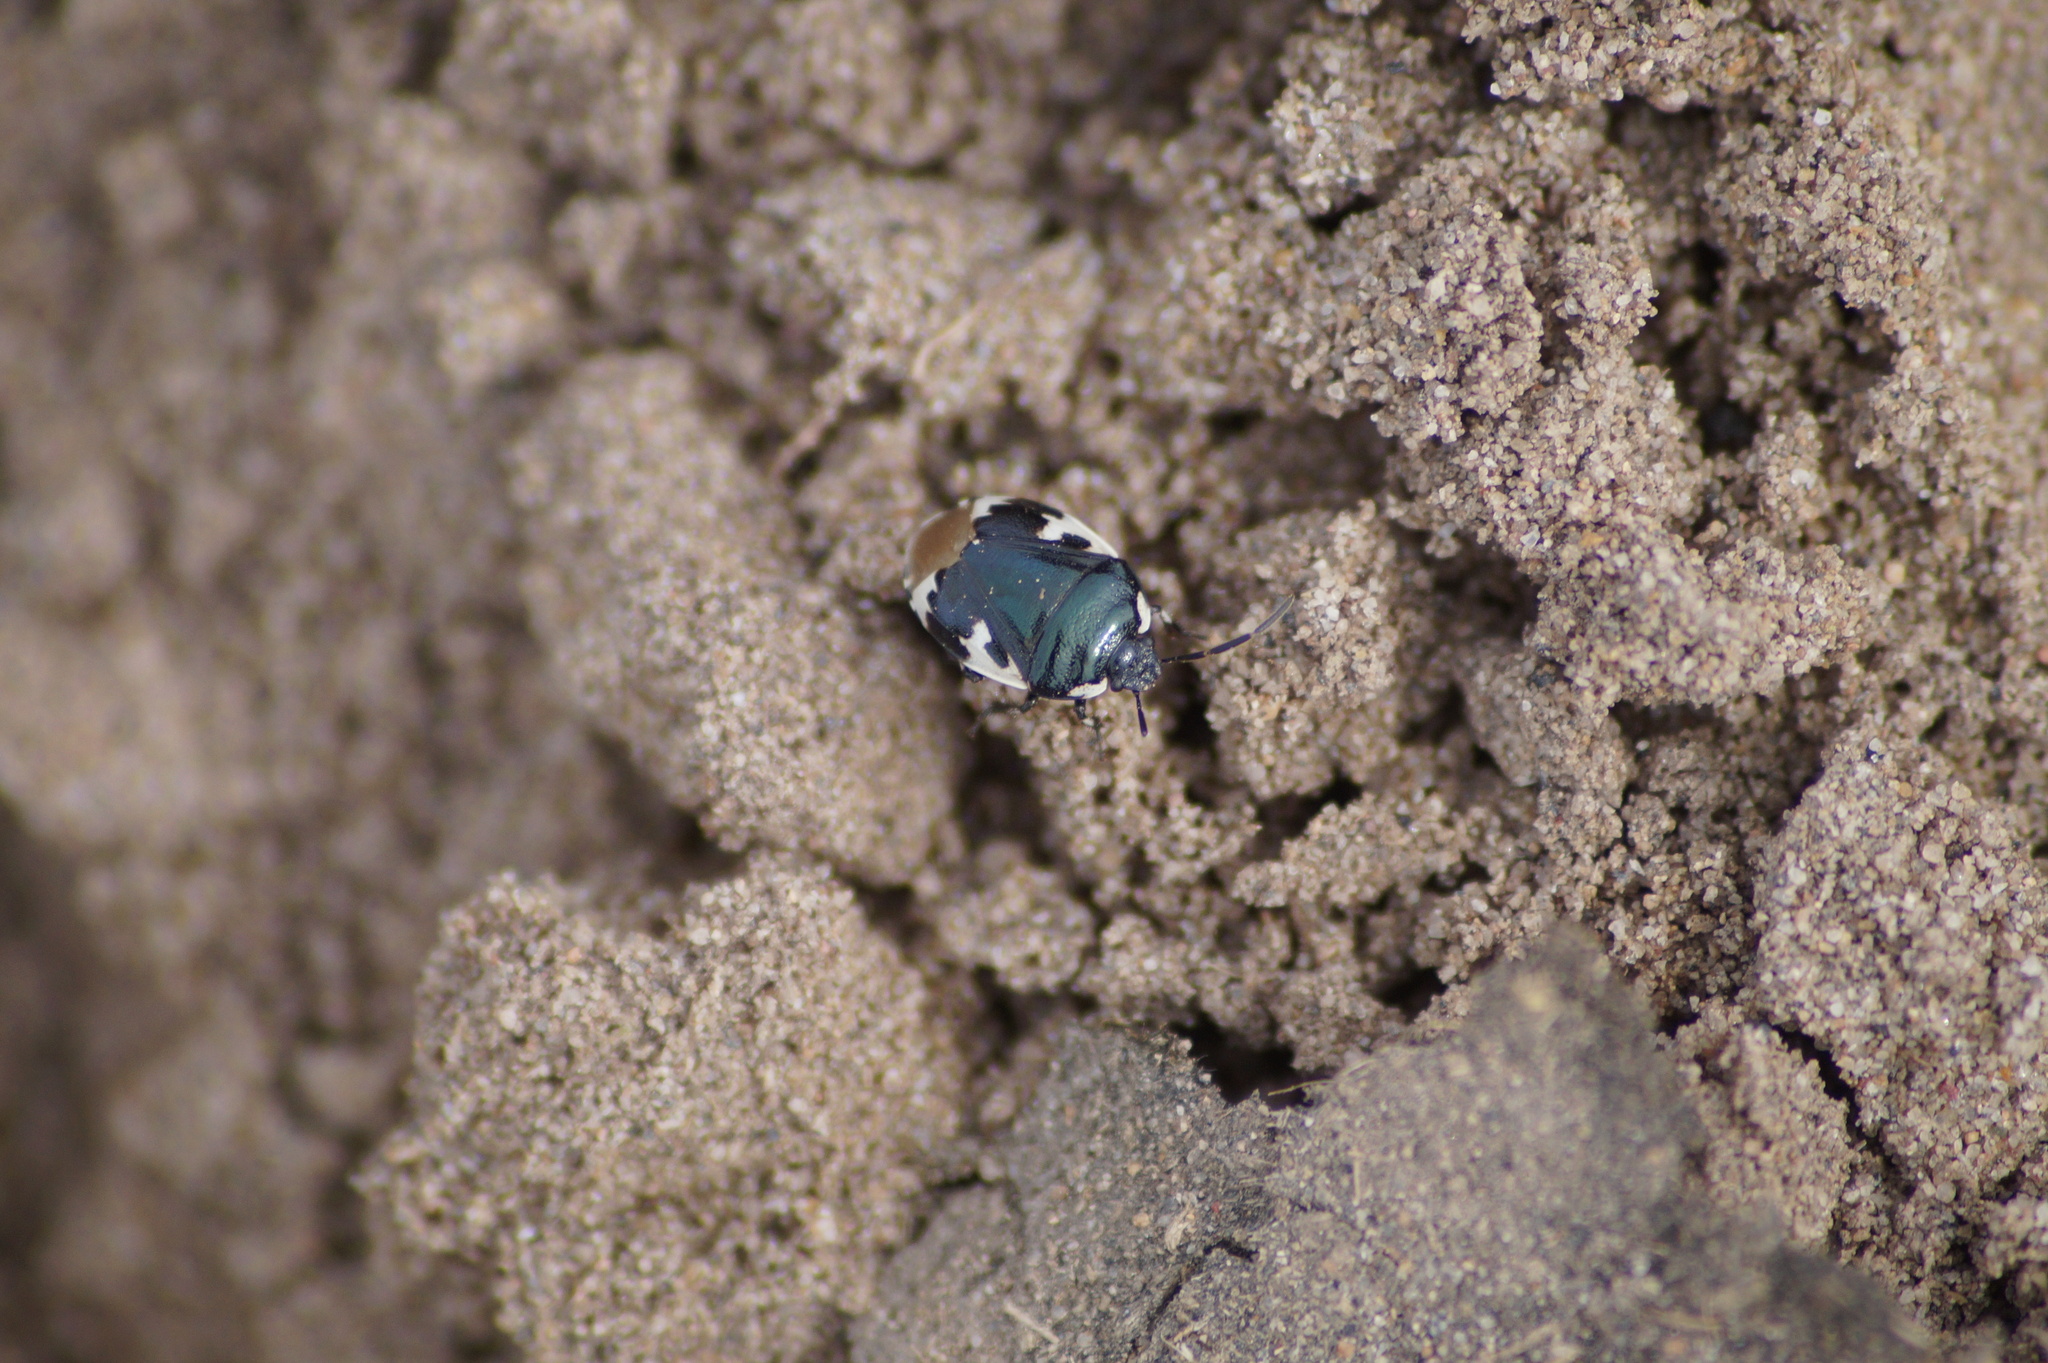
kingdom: Animalia
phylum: Arthropoda
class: Insecta
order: Hemiptera
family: Cydnidae
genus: Tritomegas
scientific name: Tritomegas bicolor
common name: Pied shieldbug
